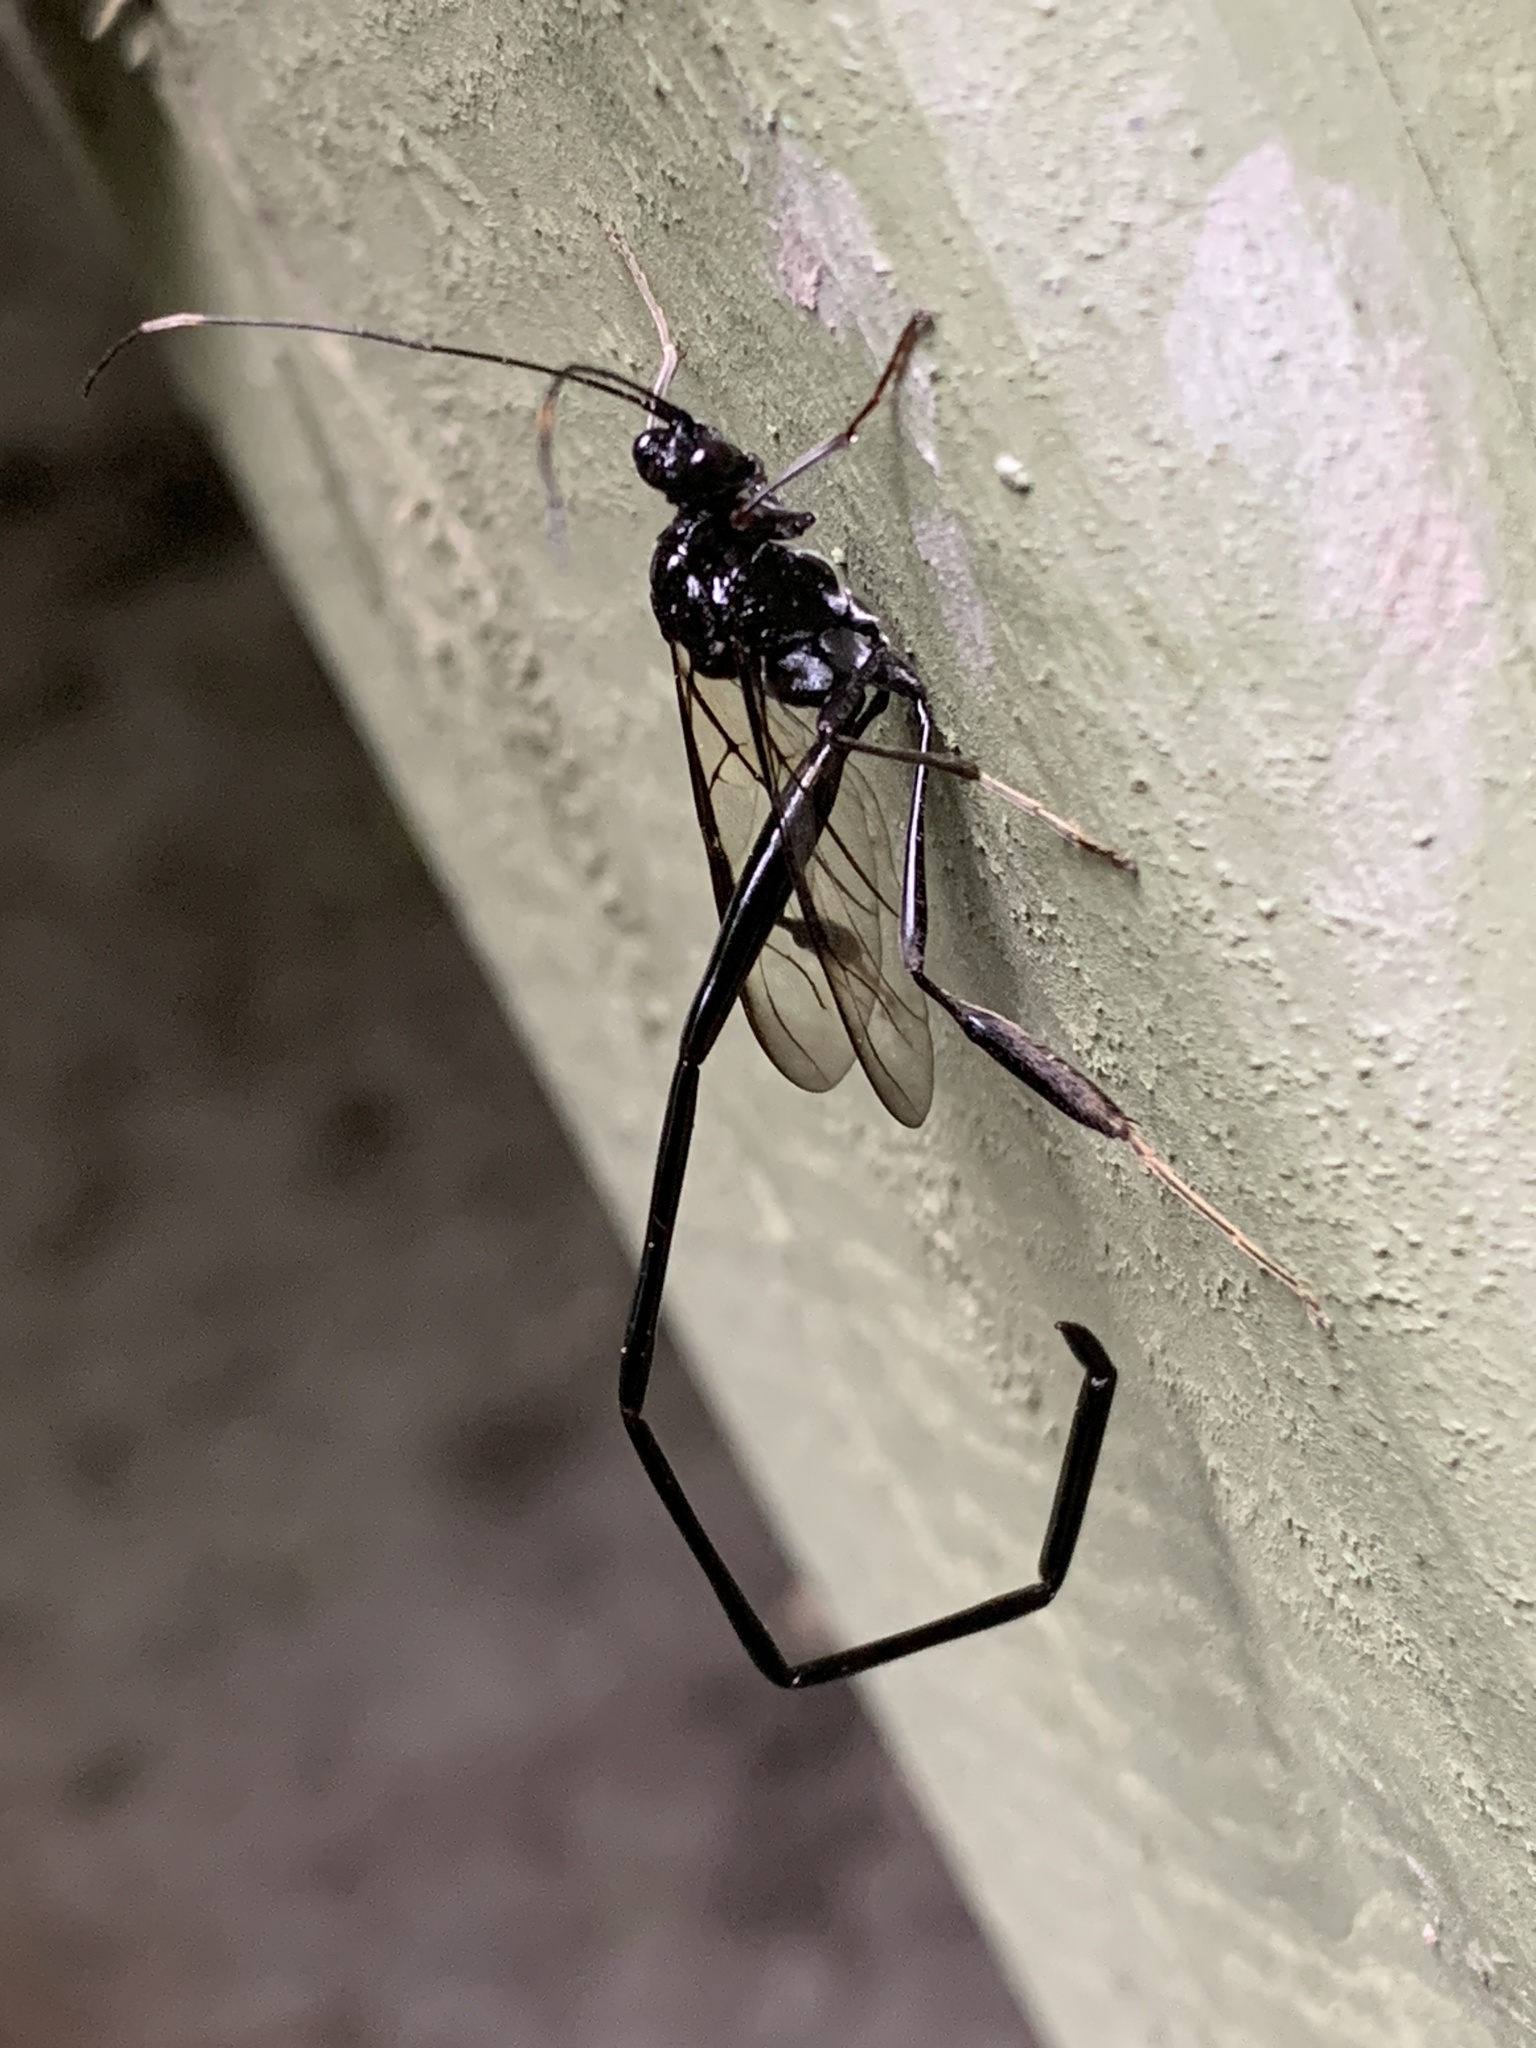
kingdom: Animalia
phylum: Arthropoda
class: Insecta
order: Hymenoptera
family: Pelecinidae
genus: Pelecinus
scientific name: Pelecinus polyturator
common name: American pelecinid wasp
